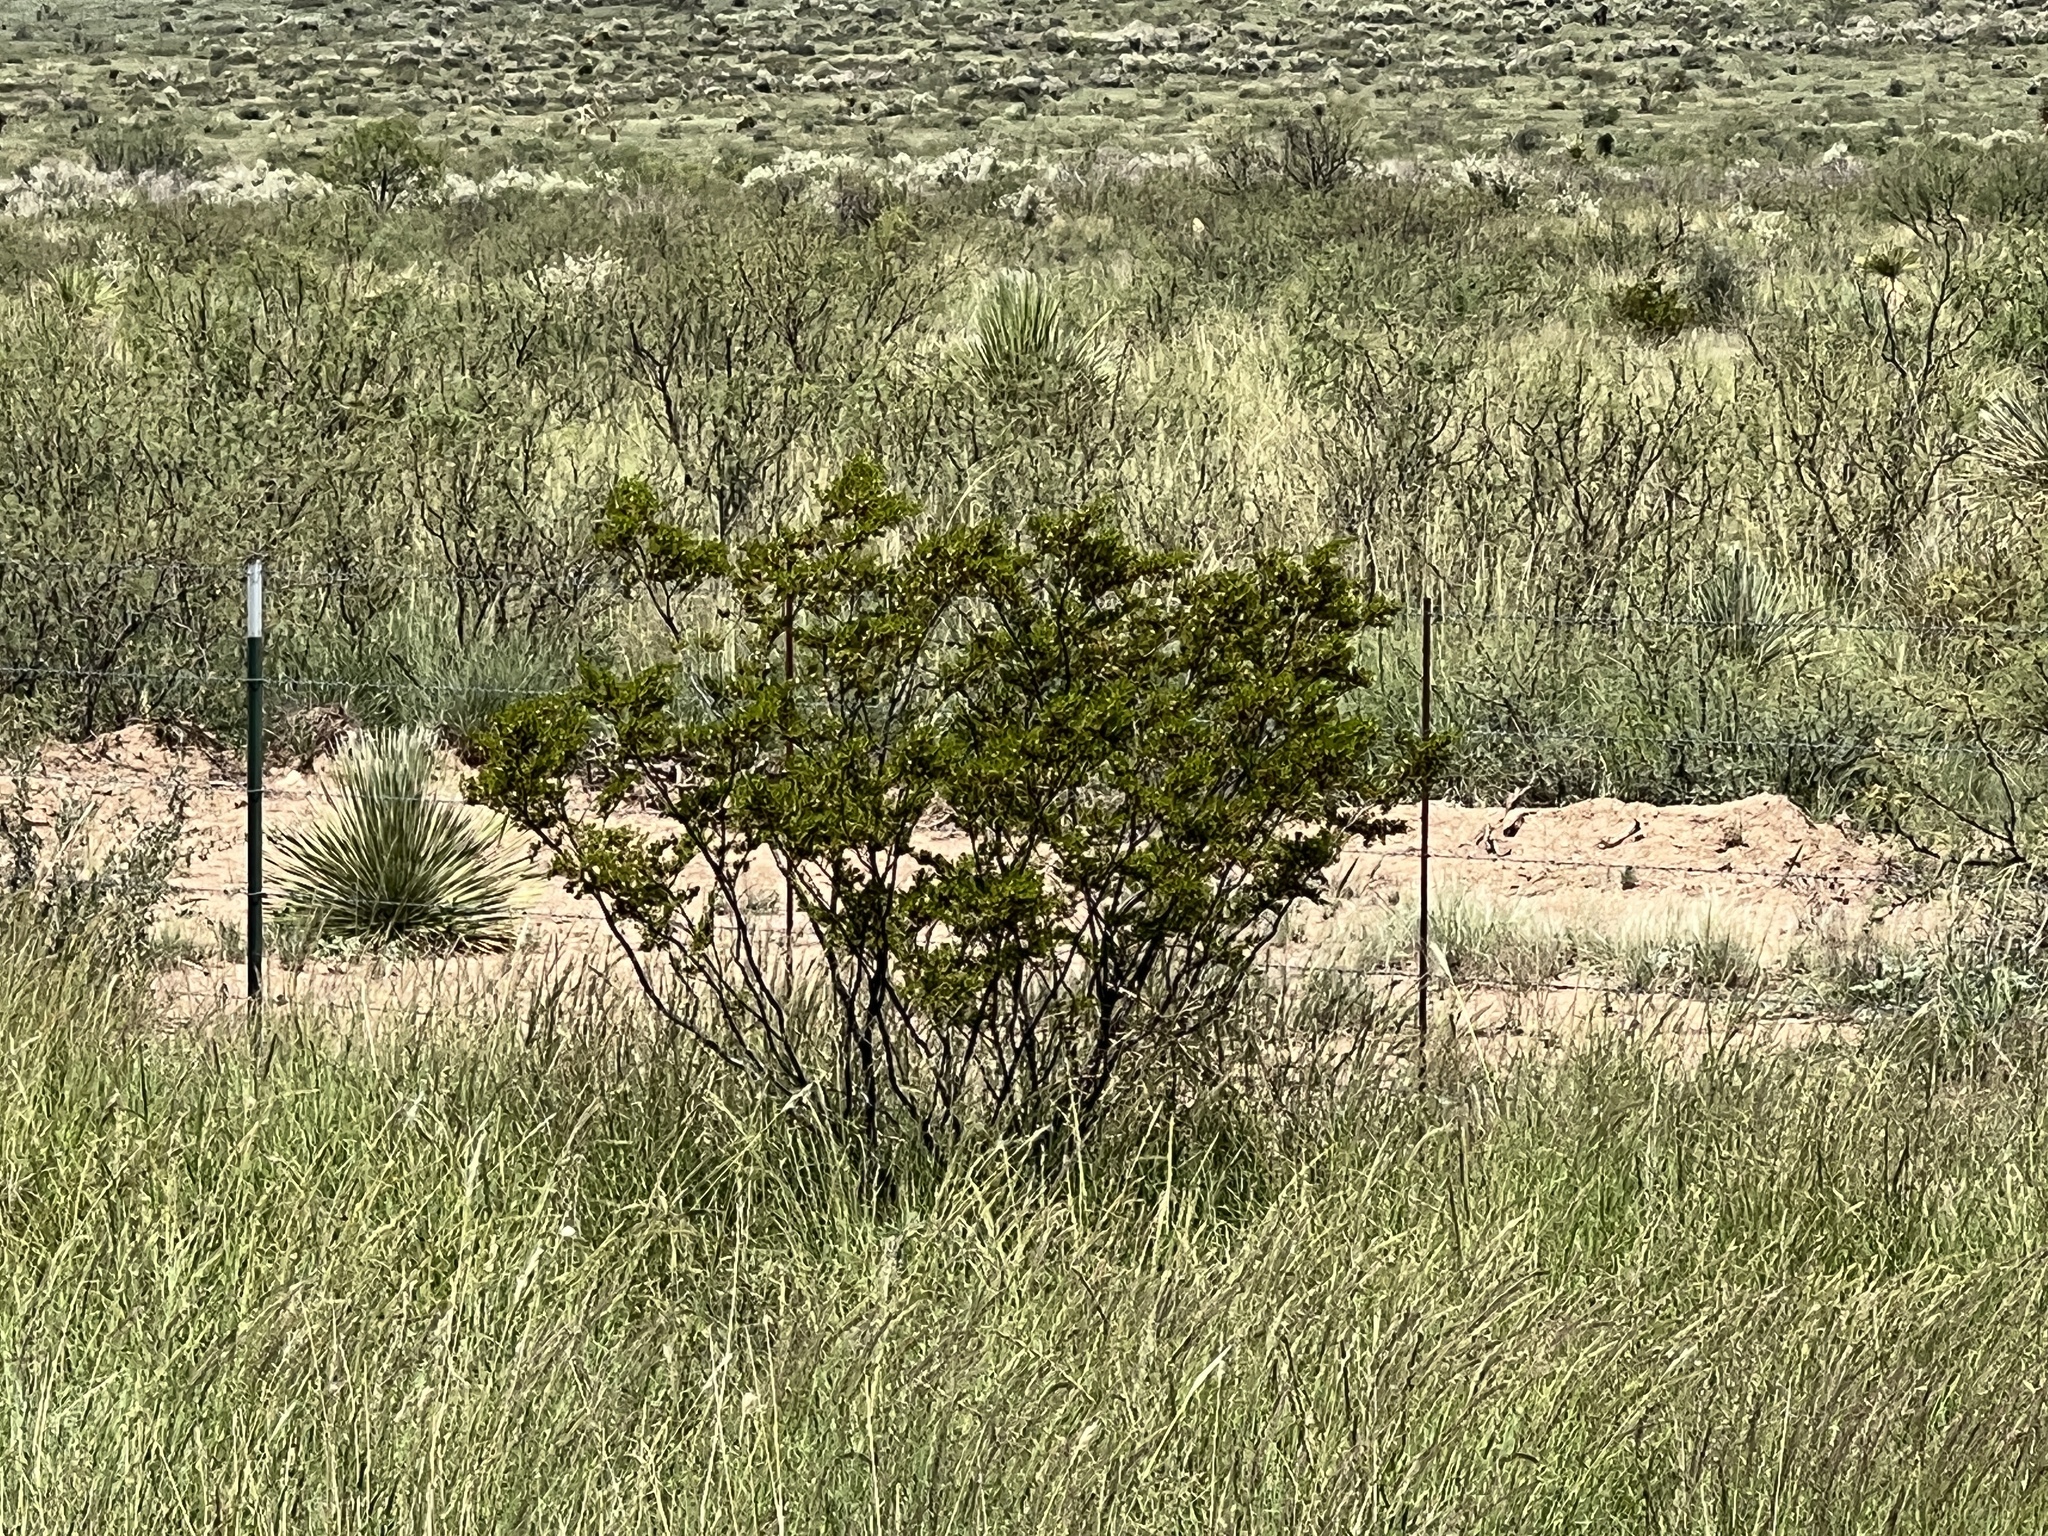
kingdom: Plantae
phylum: Tracheophyta
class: Magnoliopsida
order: Zygophyllales
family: Zygophyllaceae
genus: Larrea
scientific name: Larrea tridentata
